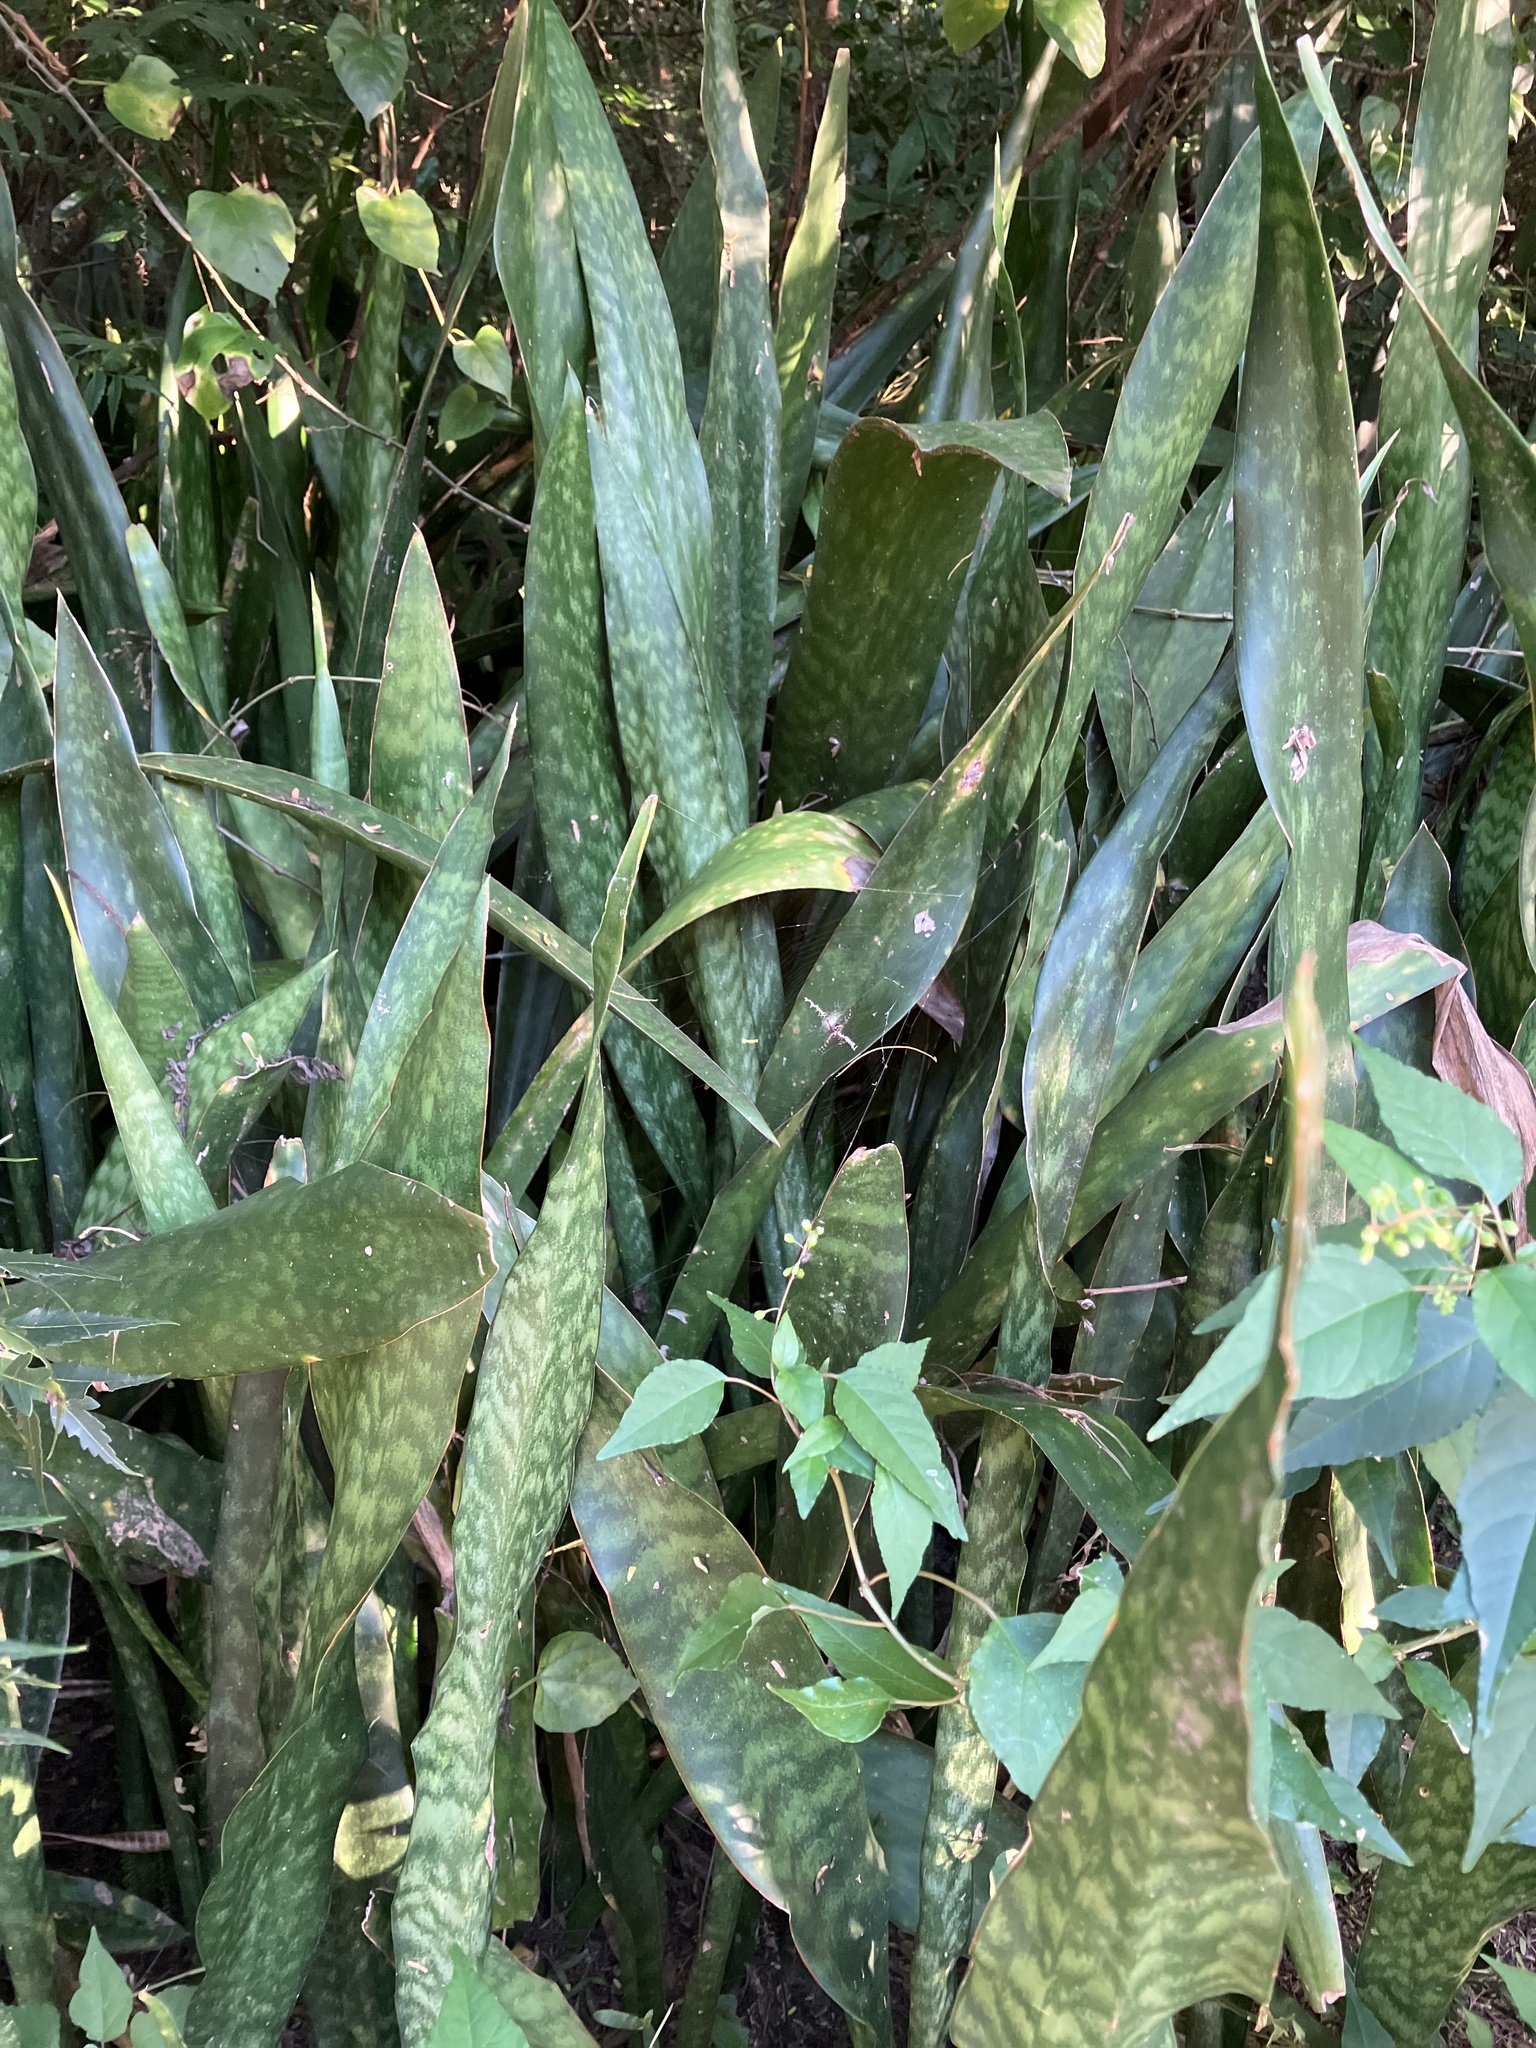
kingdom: Plantae
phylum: Tracheophyta
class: Liliopsida
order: Asparagales
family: Asparagaceae
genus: Dracaena
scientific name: Dracaena hyacinthoides
